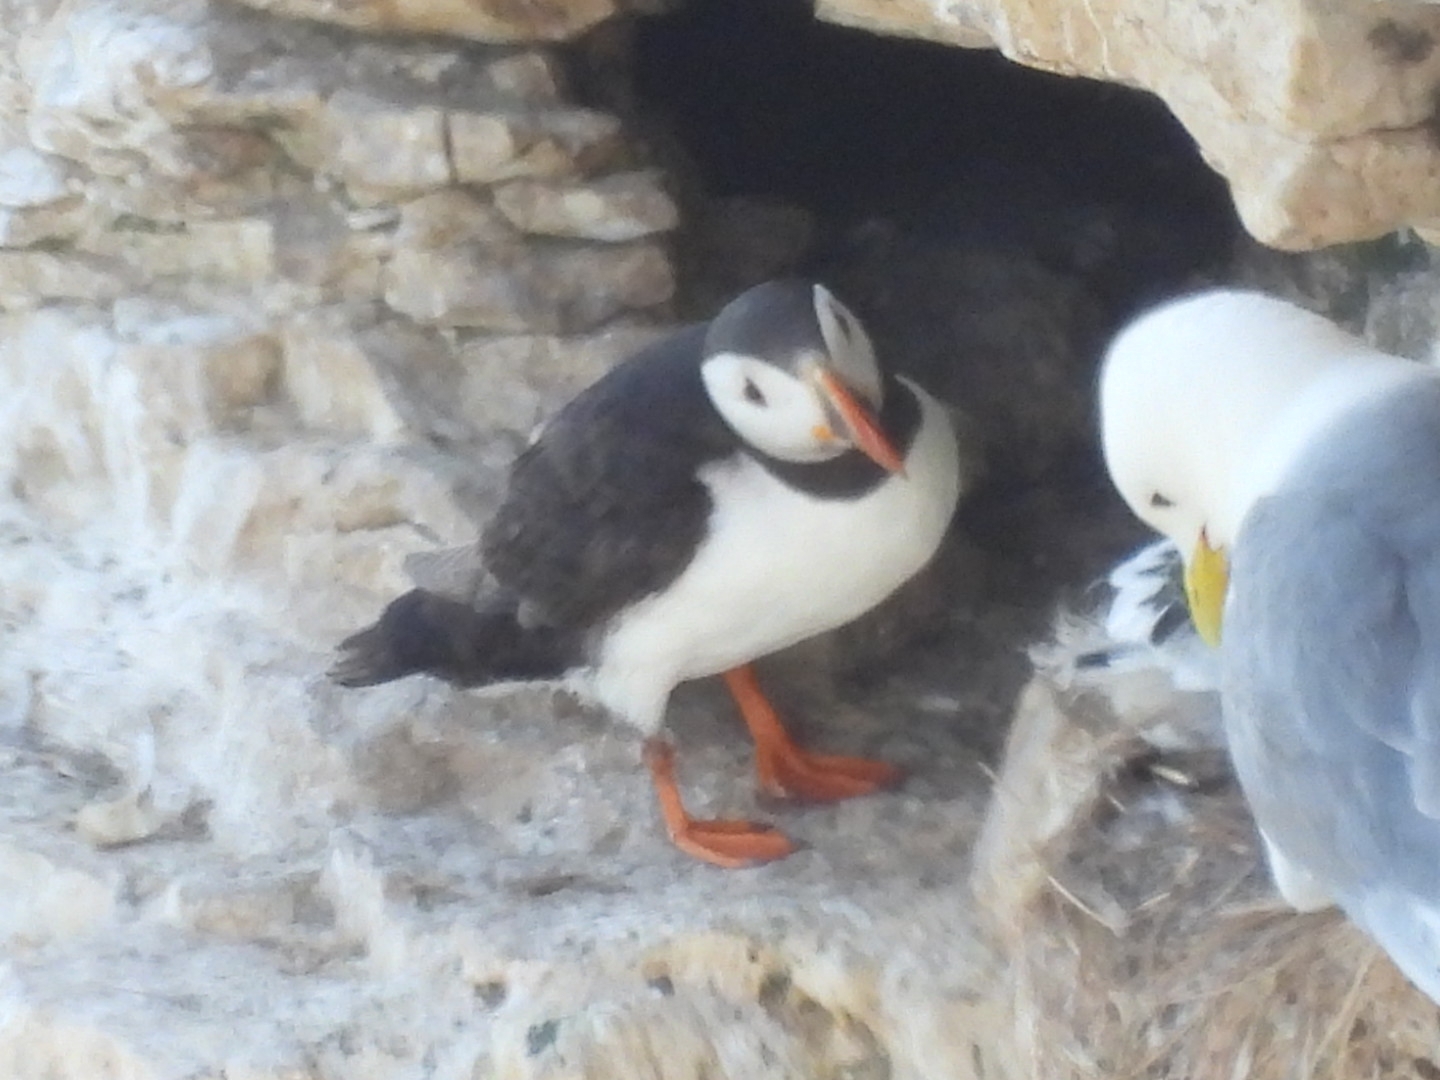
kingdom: Animalia
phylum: Chordata
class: Aves
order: Charadriiformes
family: Alcidae
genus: Fratercula
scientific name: Fratercula arctica
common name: Atlantic puffin
